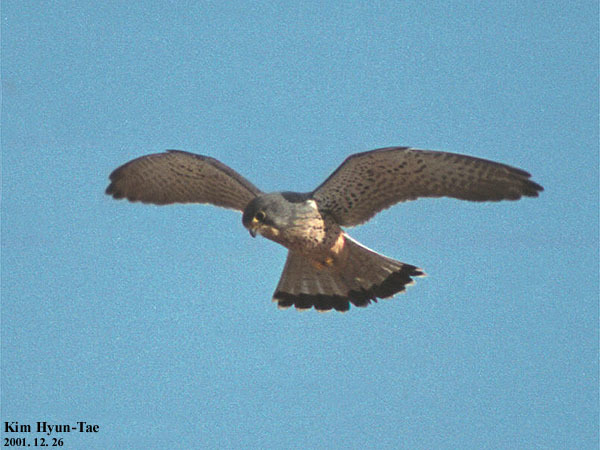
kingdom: Animalia
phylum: Chordata
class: Aves
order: Falconiformes
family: Falconidae
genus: Falco
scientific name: Falco tinnunculus
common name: Common kestrel
